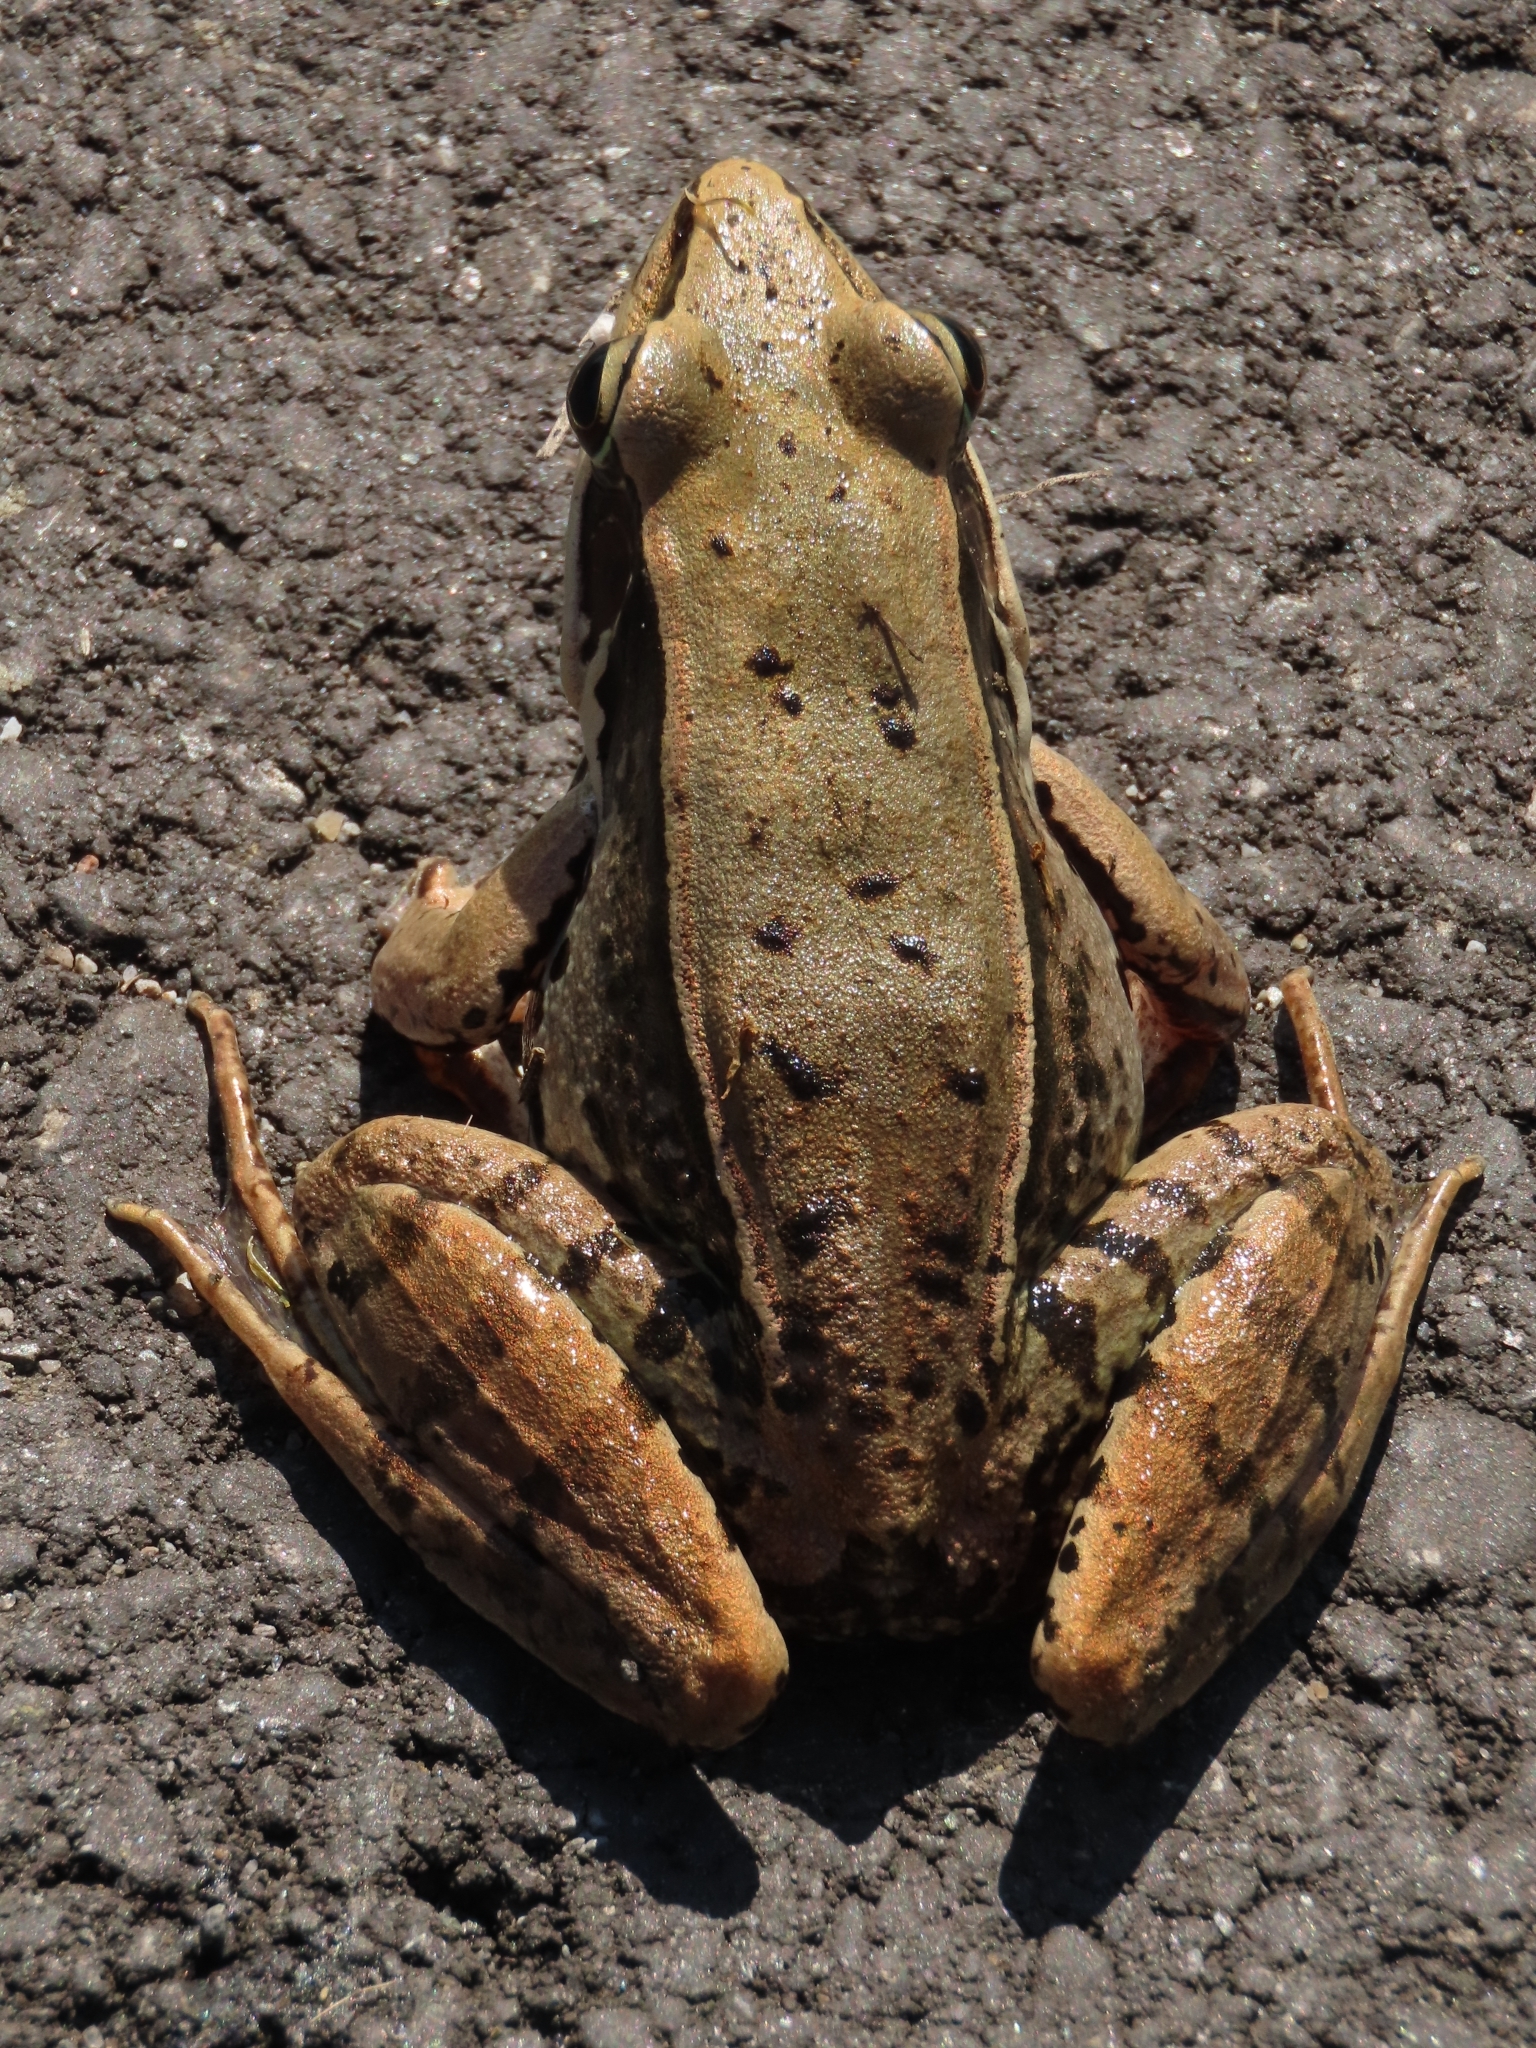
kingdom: Animalia
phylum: Chordata
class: Amphibia
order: Anura
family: Ranidae
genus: Sylvirana
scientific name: Sylvirana guentheri
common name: Guenther's amoy frog
